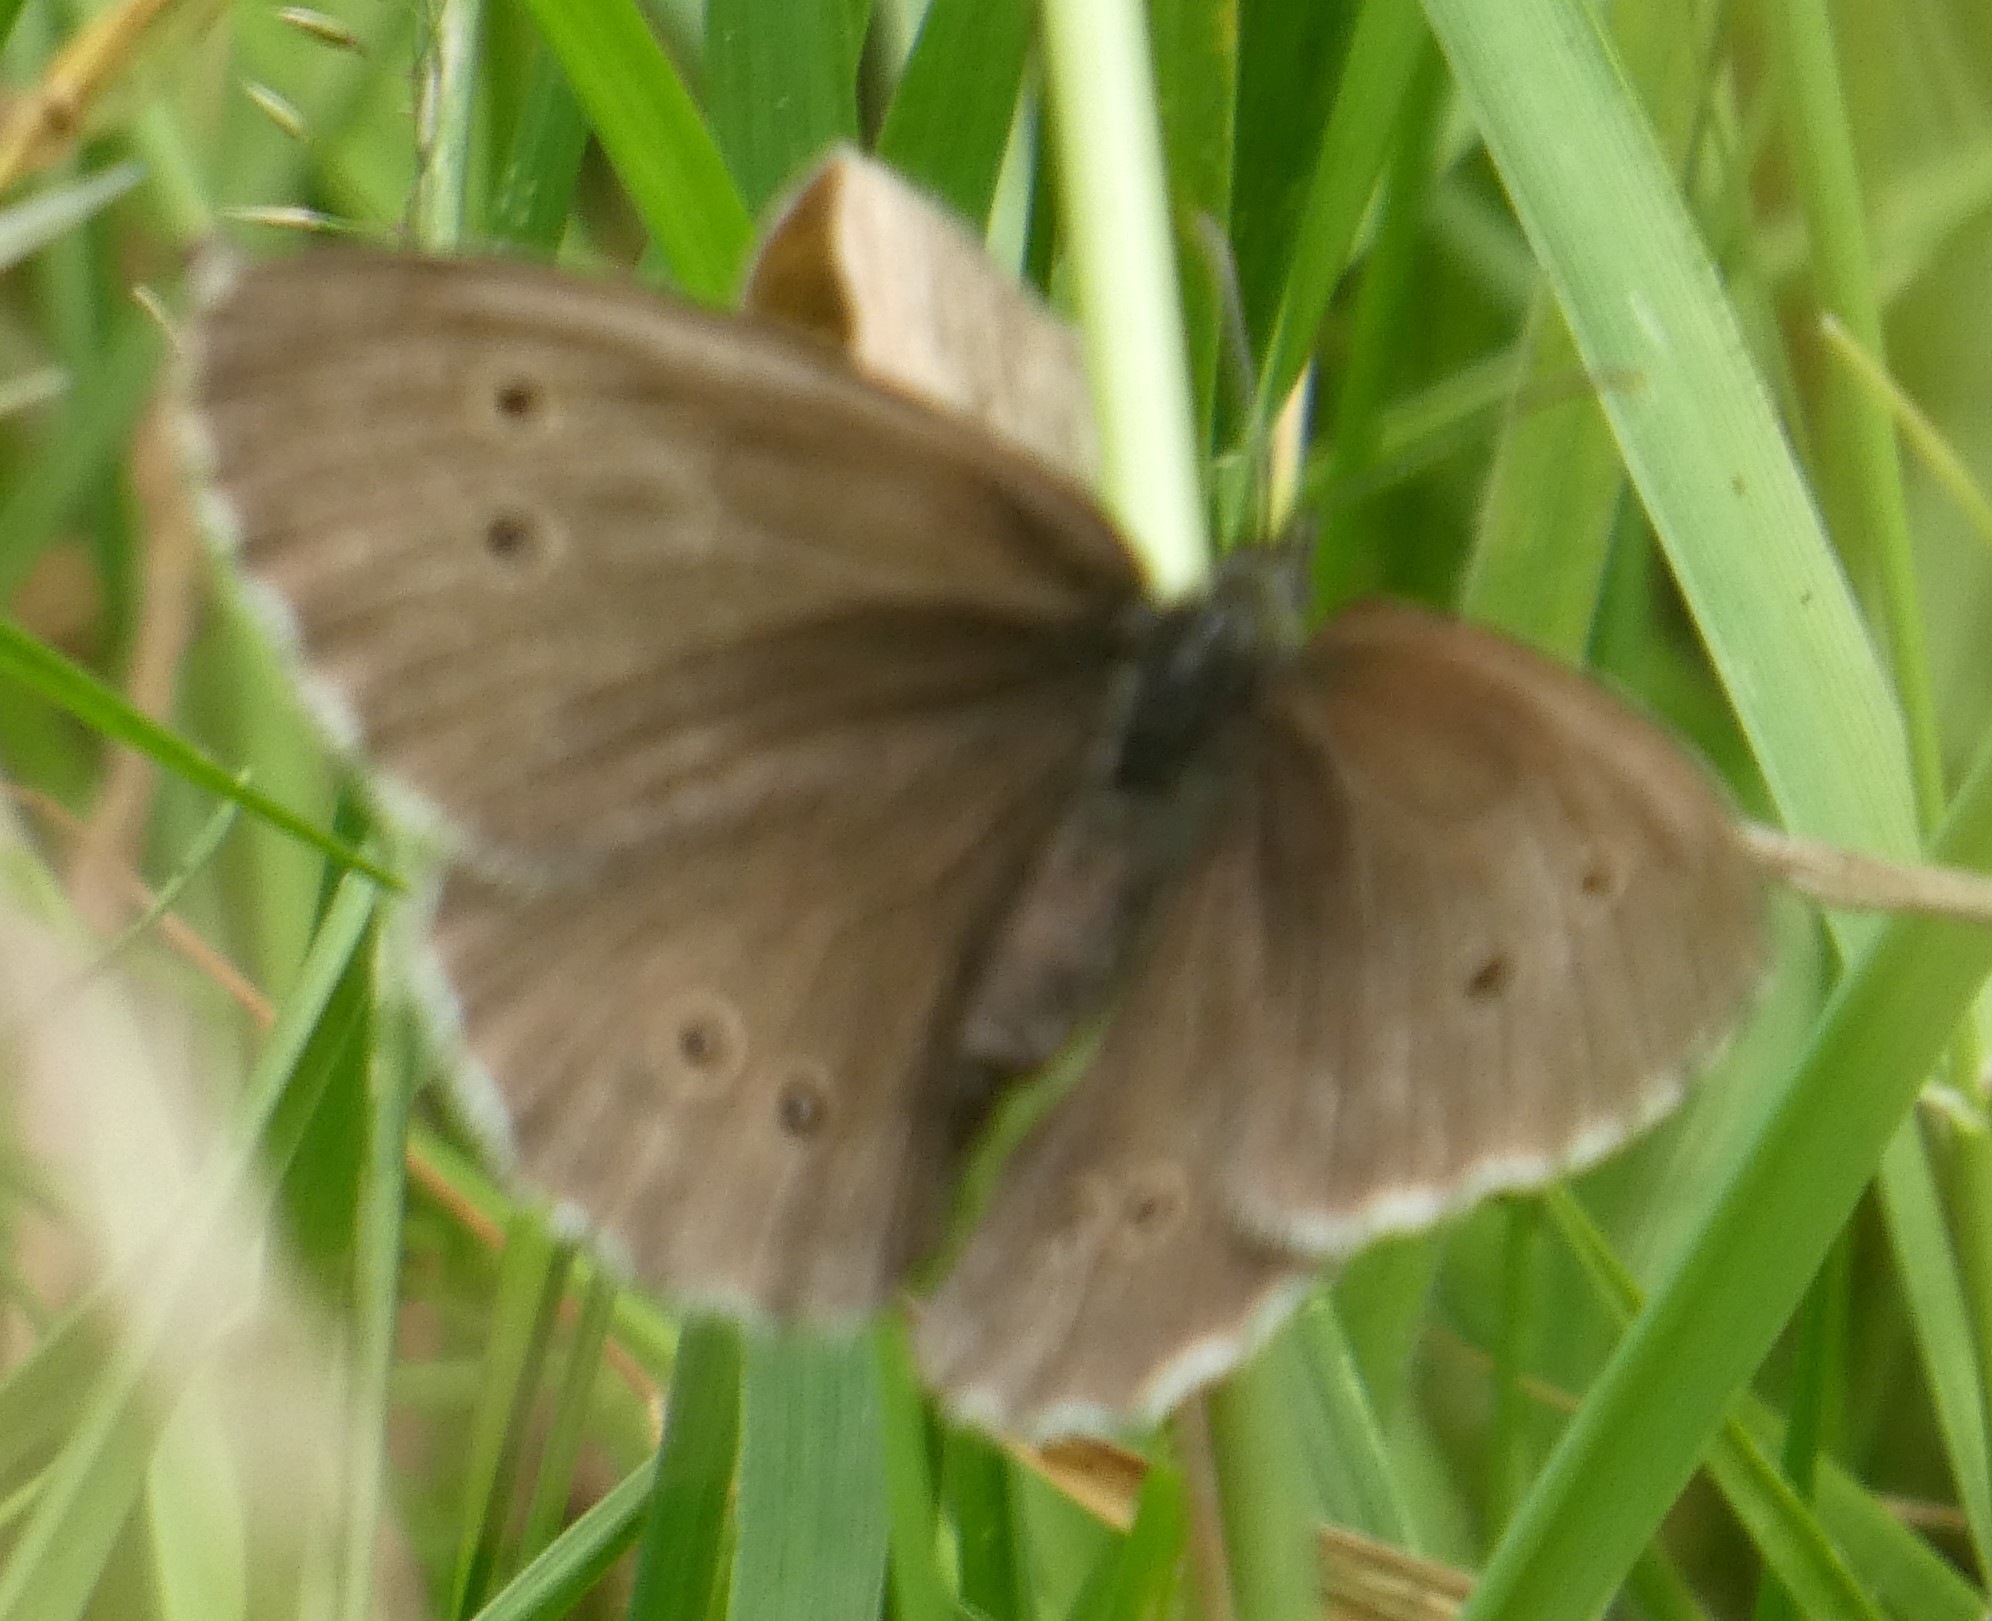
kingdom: Animalia
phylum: Arthropoda
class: Insecta
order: Lepidoptera
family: Nymphalidae
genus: Aphantopus
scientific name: Aphantopus hyperantus
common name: Ringlet
